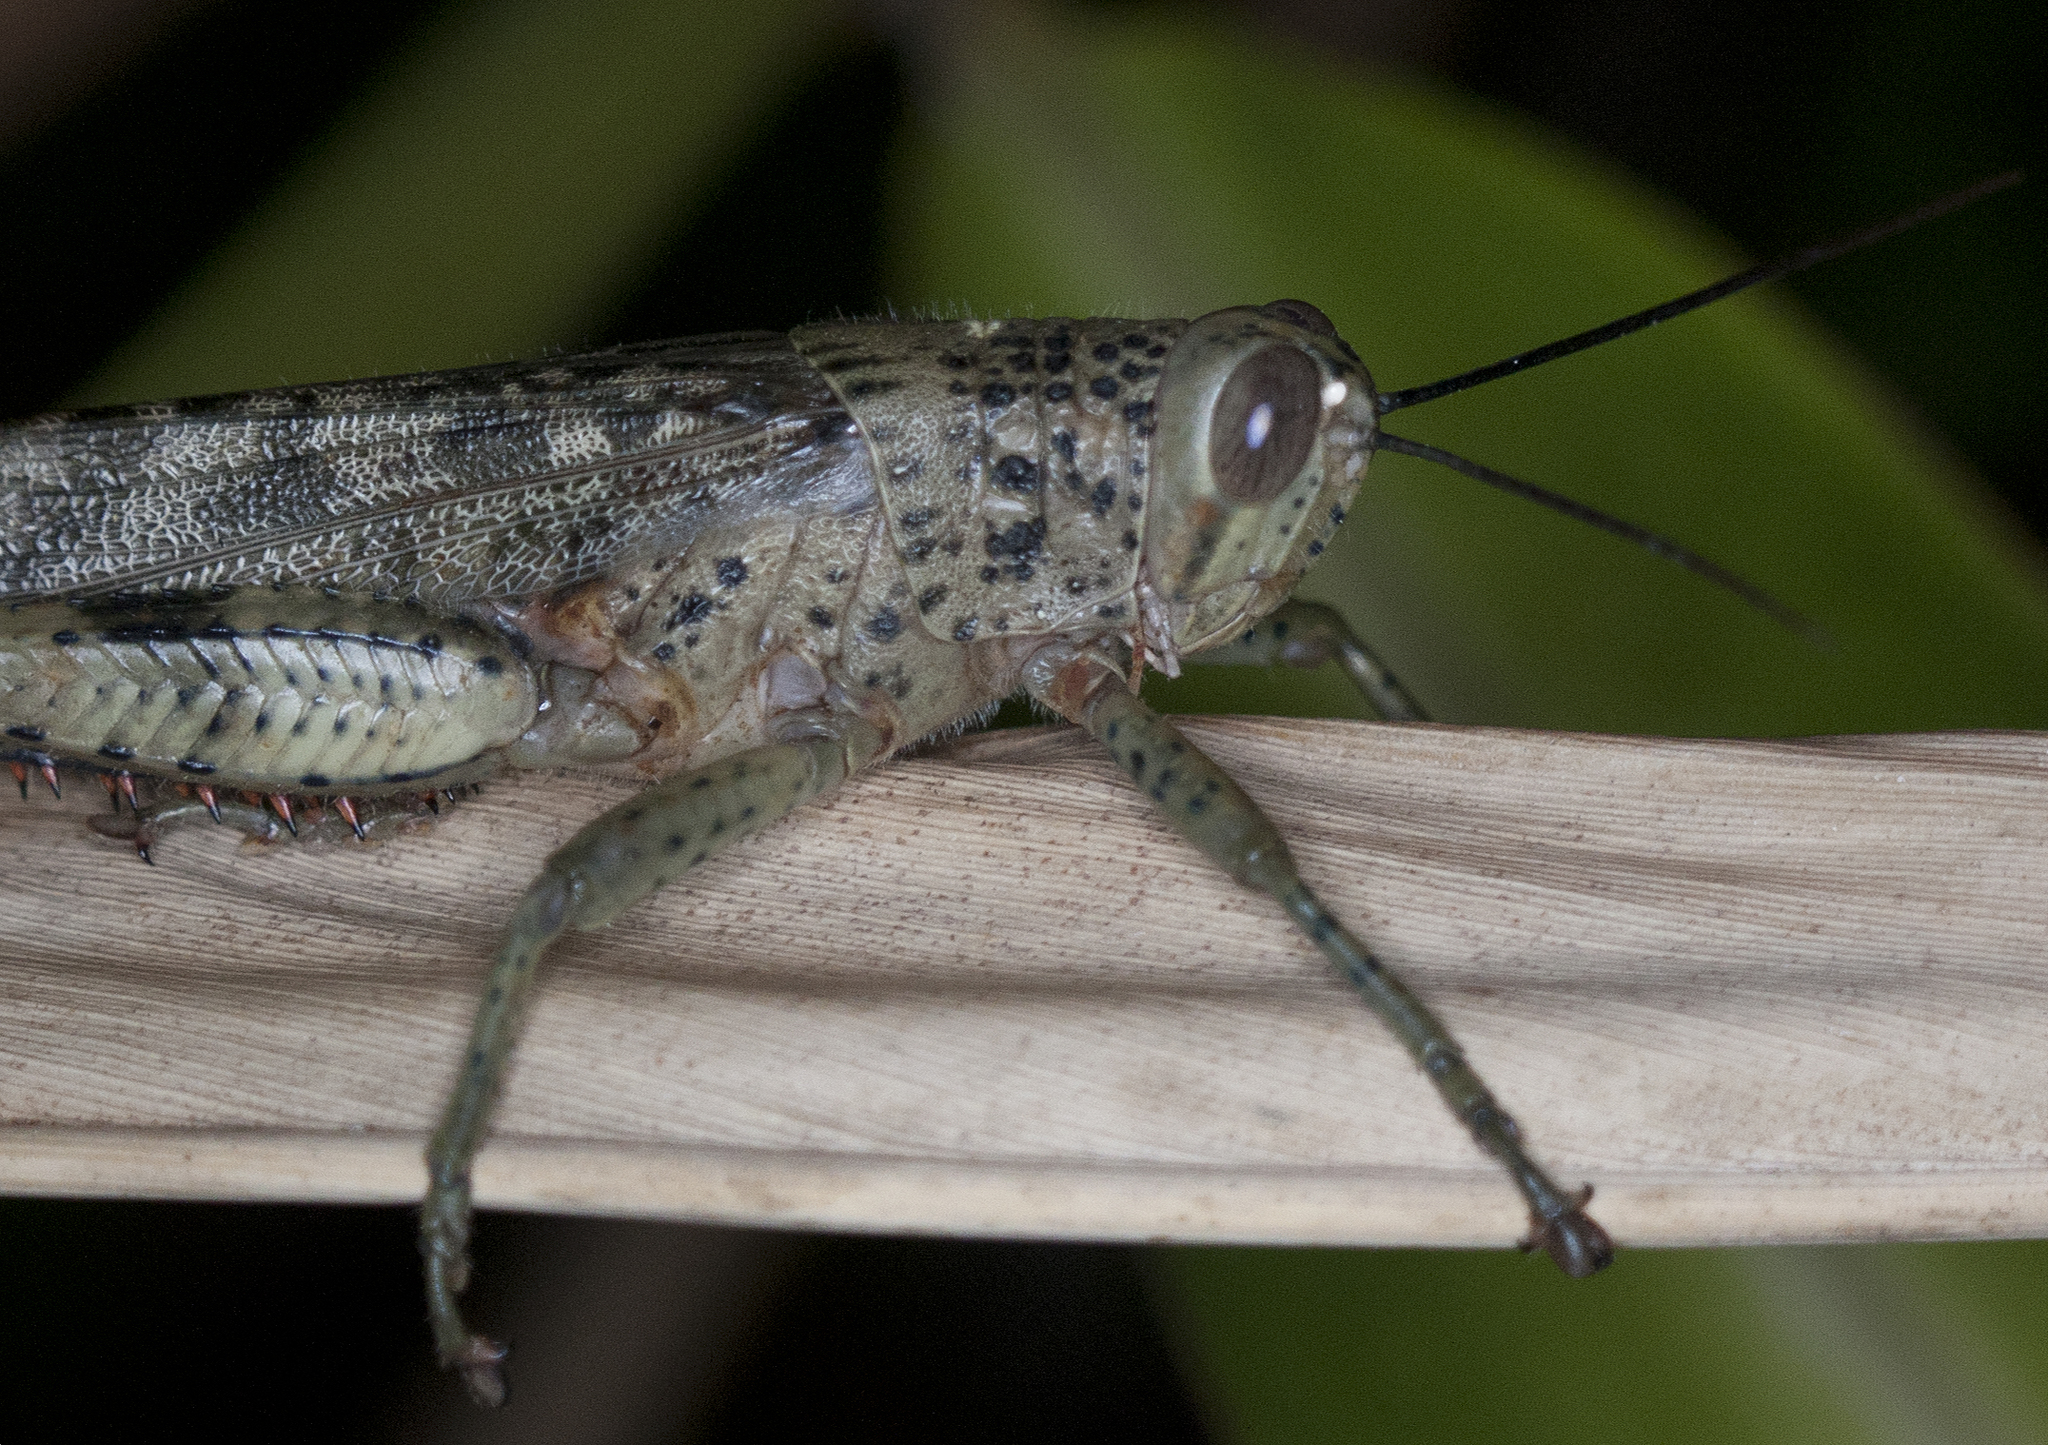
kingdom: Animalia
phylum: Arthropoda
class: Insecta
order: Orthoptera
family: Acrididae
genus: Valanga
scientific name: Valanga irregularis
